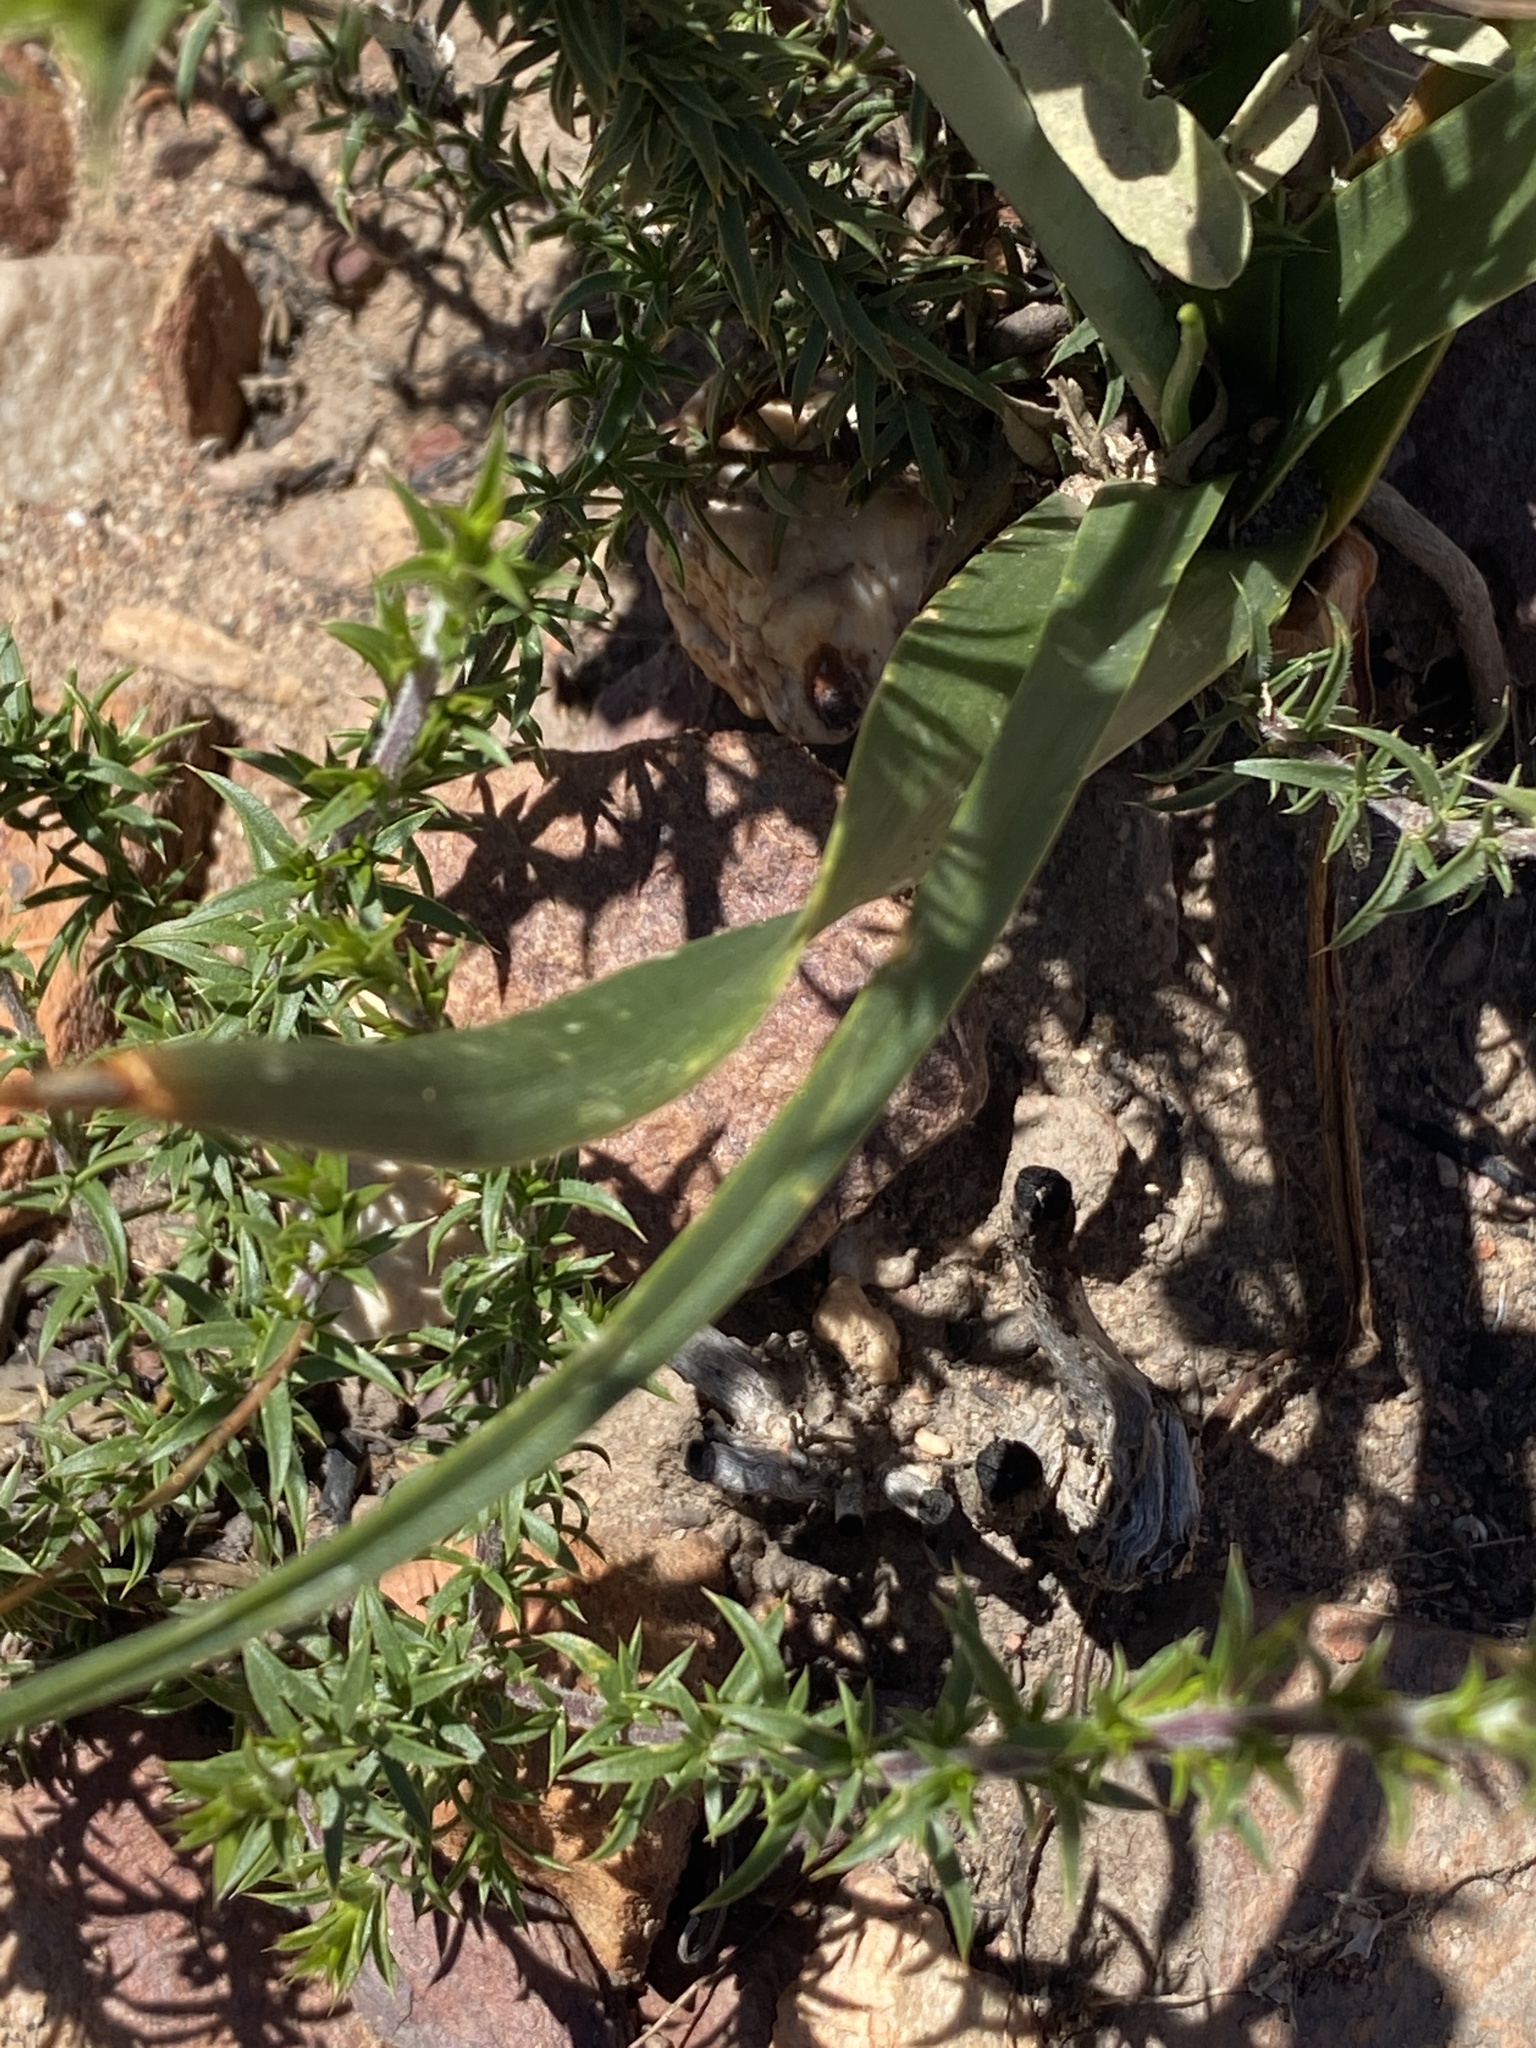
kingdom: Plantae
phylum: Tracheophyta
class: Liliopsida
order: Asparagales
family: Asparagaceae
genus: Albuca
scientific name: Albuca setosa
